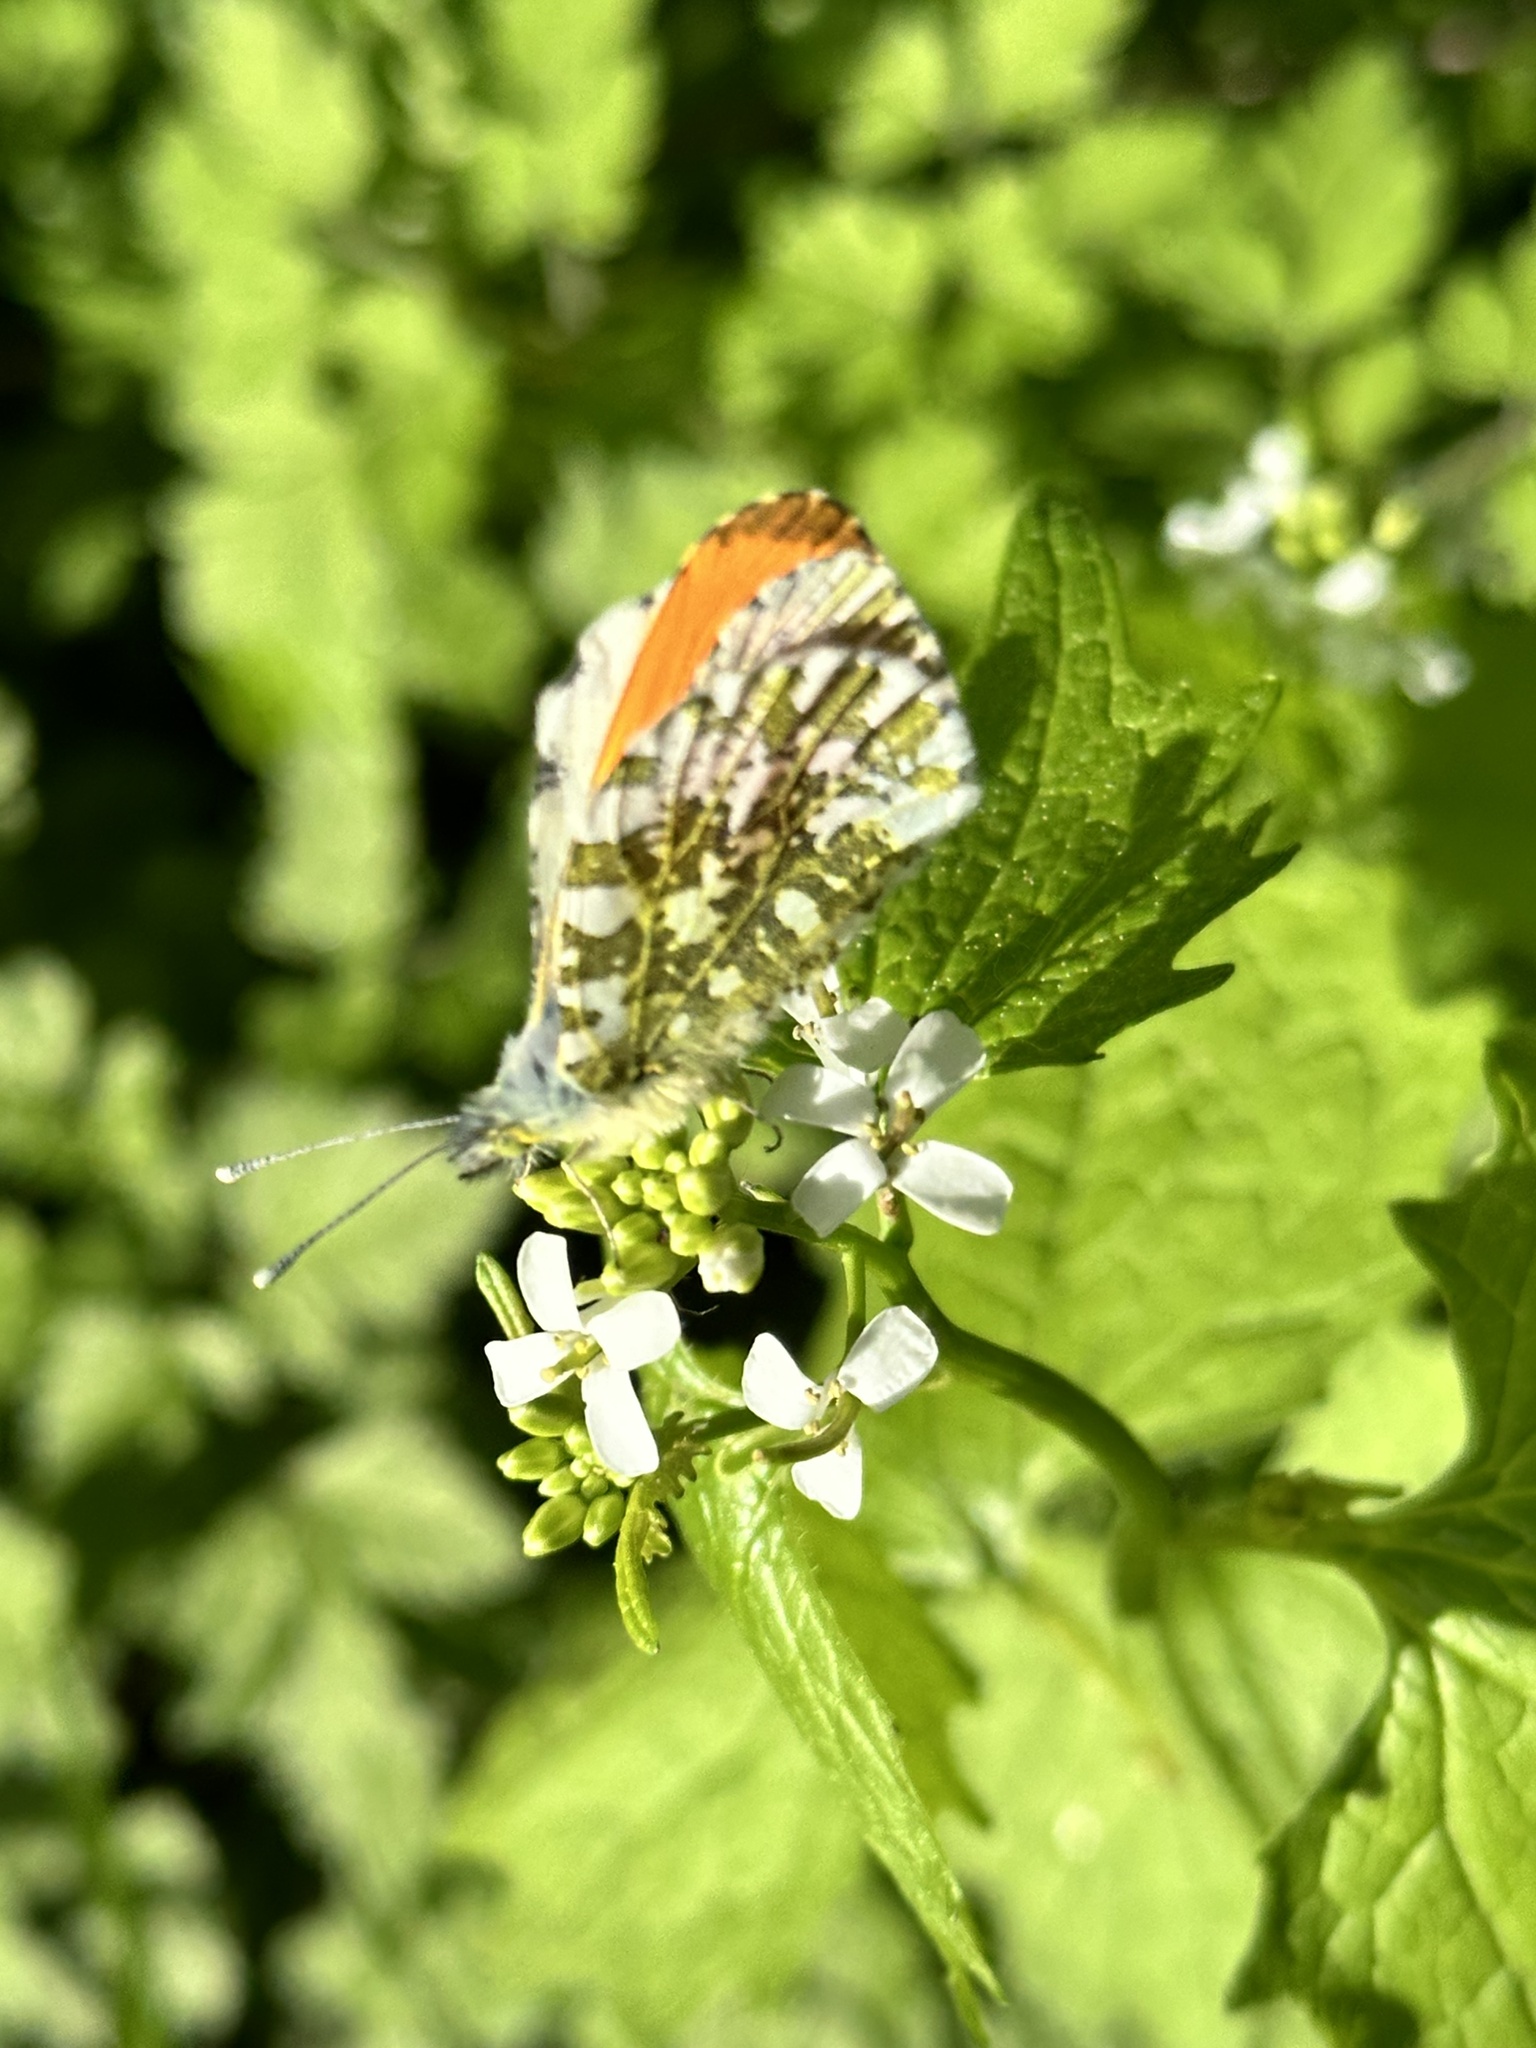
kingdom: Animalia
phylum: Arthropoda
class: Insecta
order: Lepidoptera
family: Pieridae
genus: Anthocharis
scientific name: Anthocharis cardamines
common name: Orange-tip
